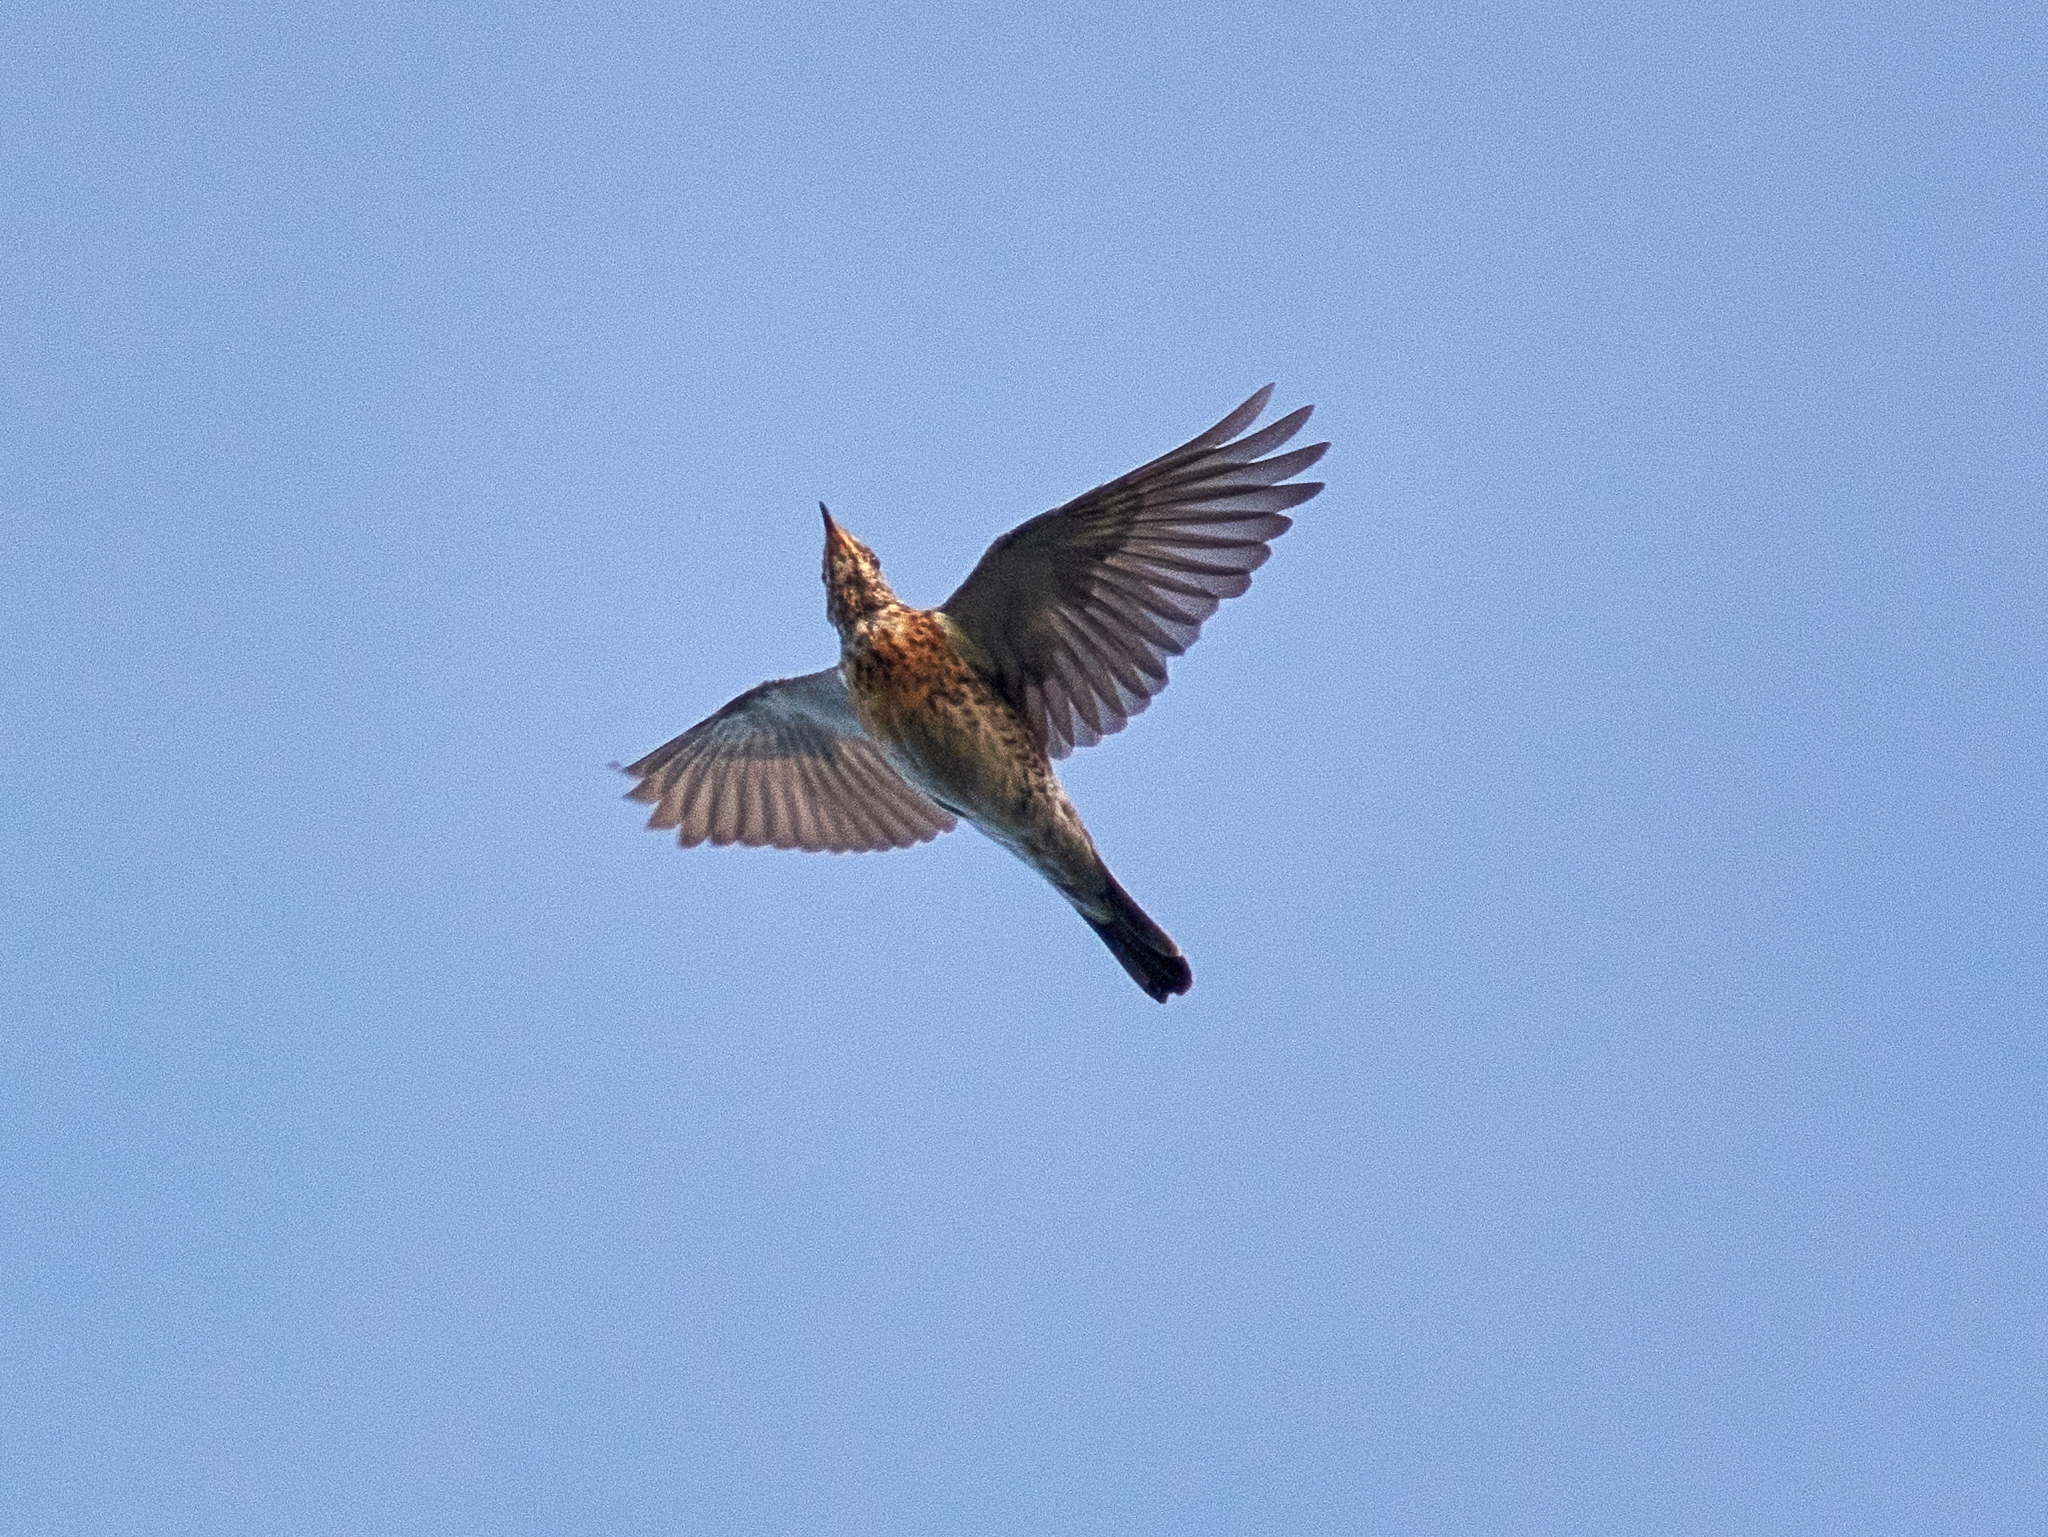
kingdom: Animalia
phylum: Chordata
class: Aves
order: Passeriformes
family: Turdidae
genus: Turdus
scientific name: Turdus pilaris
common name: Fieldfare
